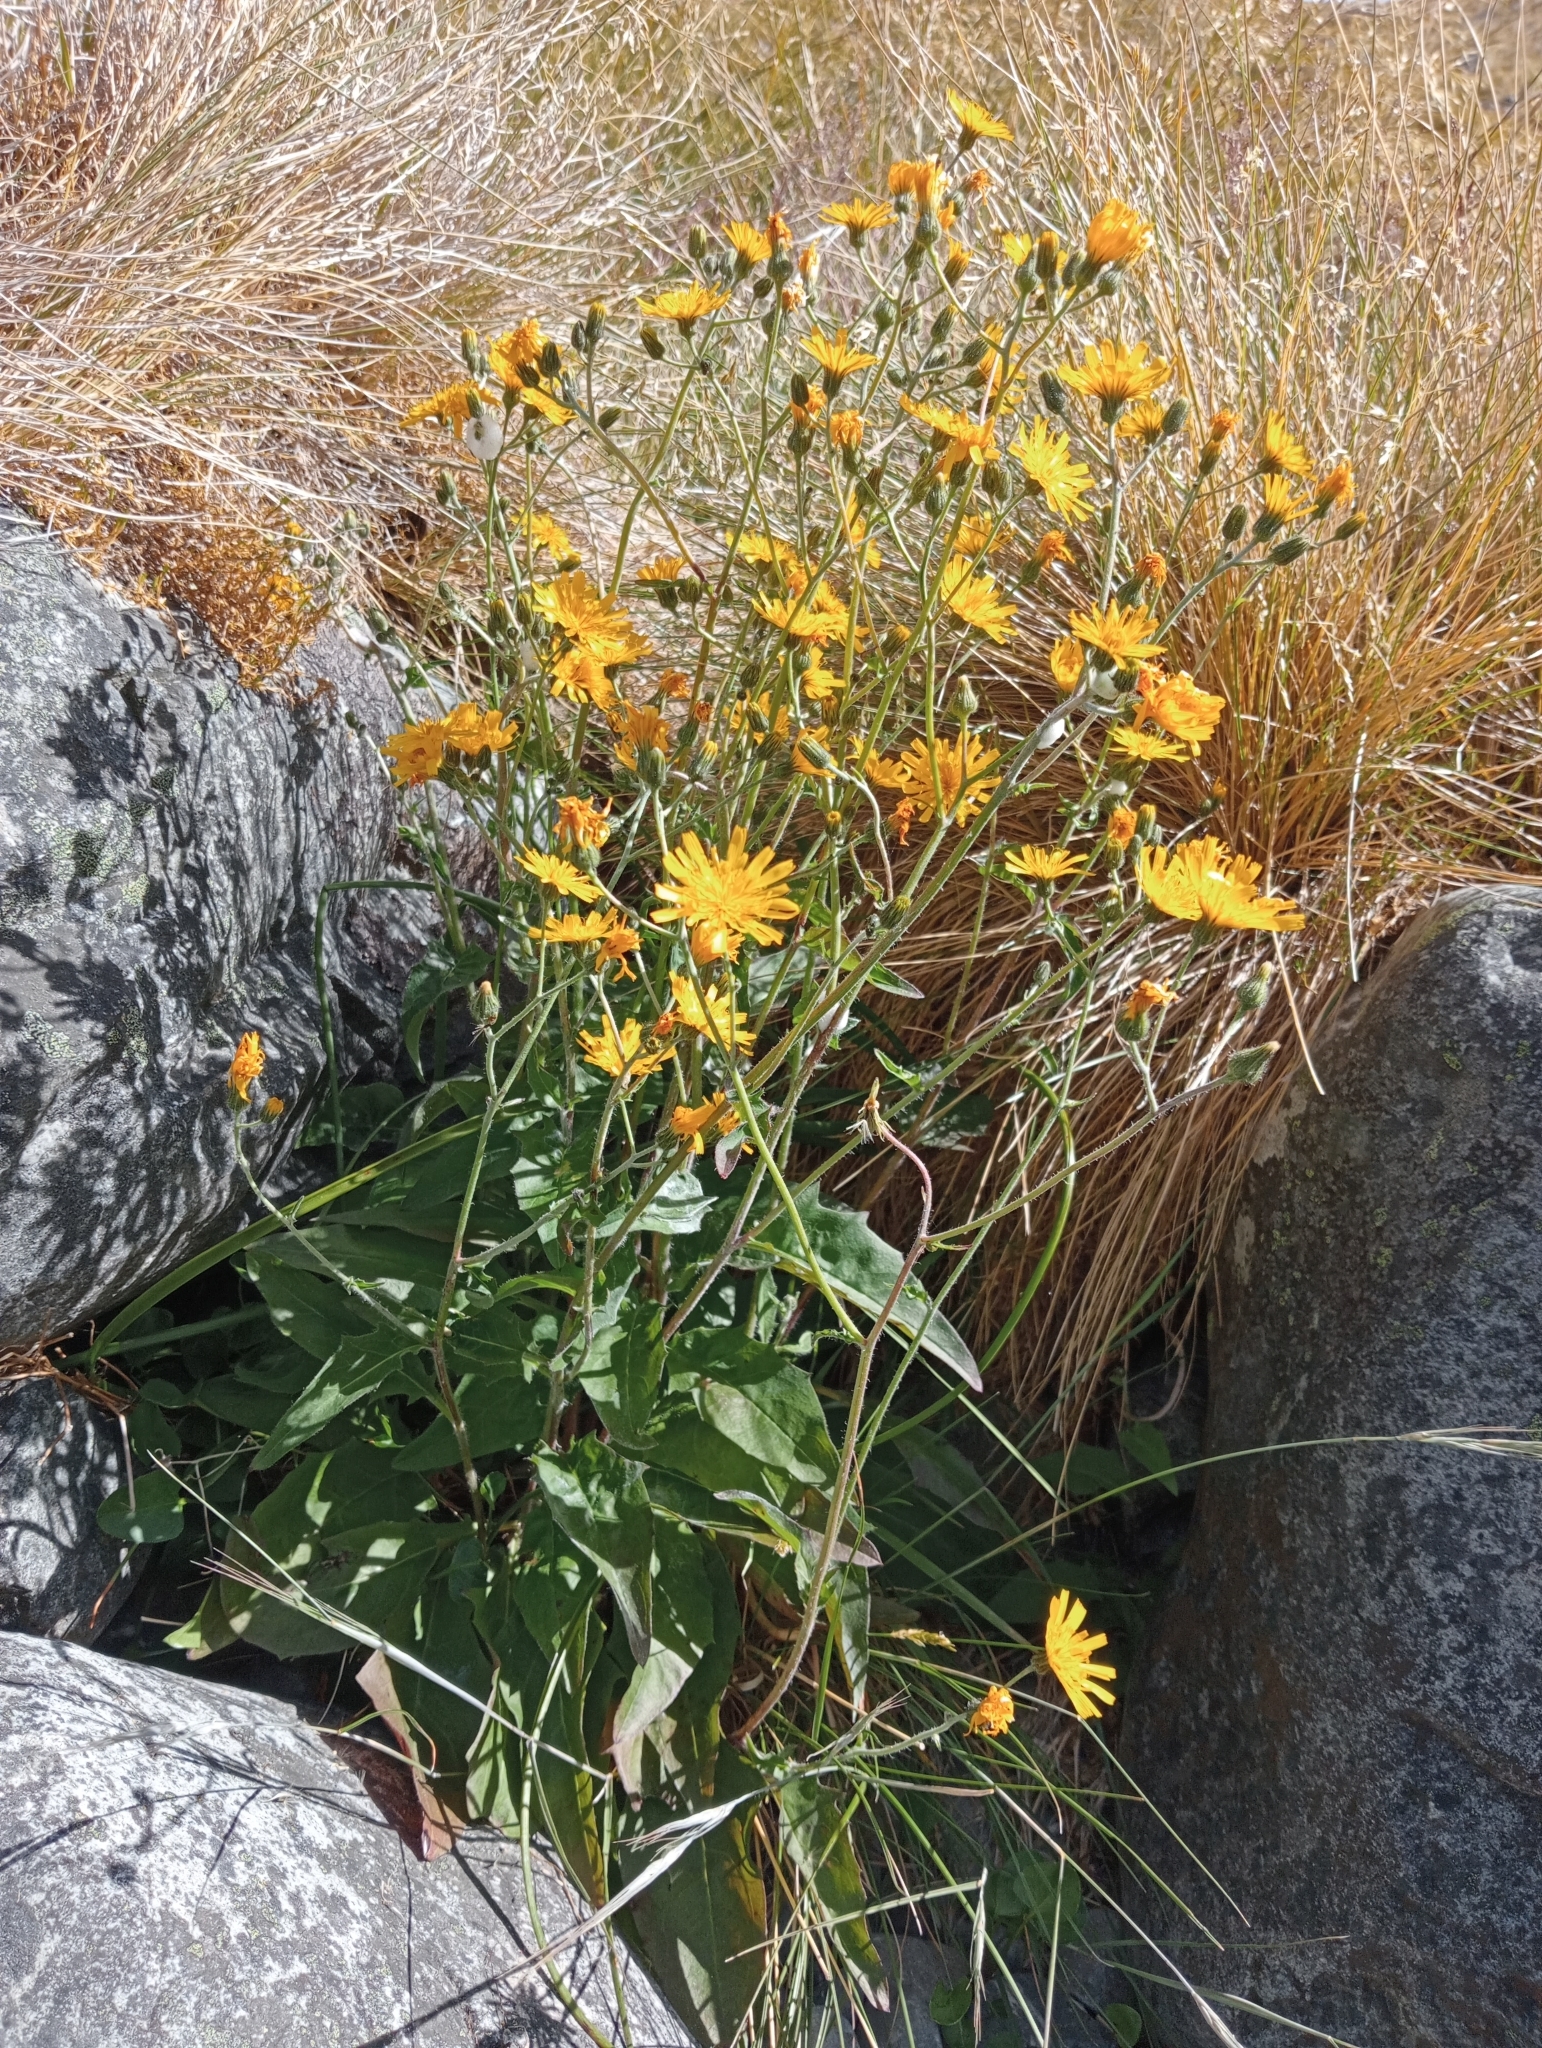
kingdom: Plantae
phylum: Tracheophyta
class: Magnoliopsida
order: Asterales
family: Asteraceae
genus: Hieracium
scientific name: Hieracium lepidulum
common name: Irregular-toothed hawkweed
